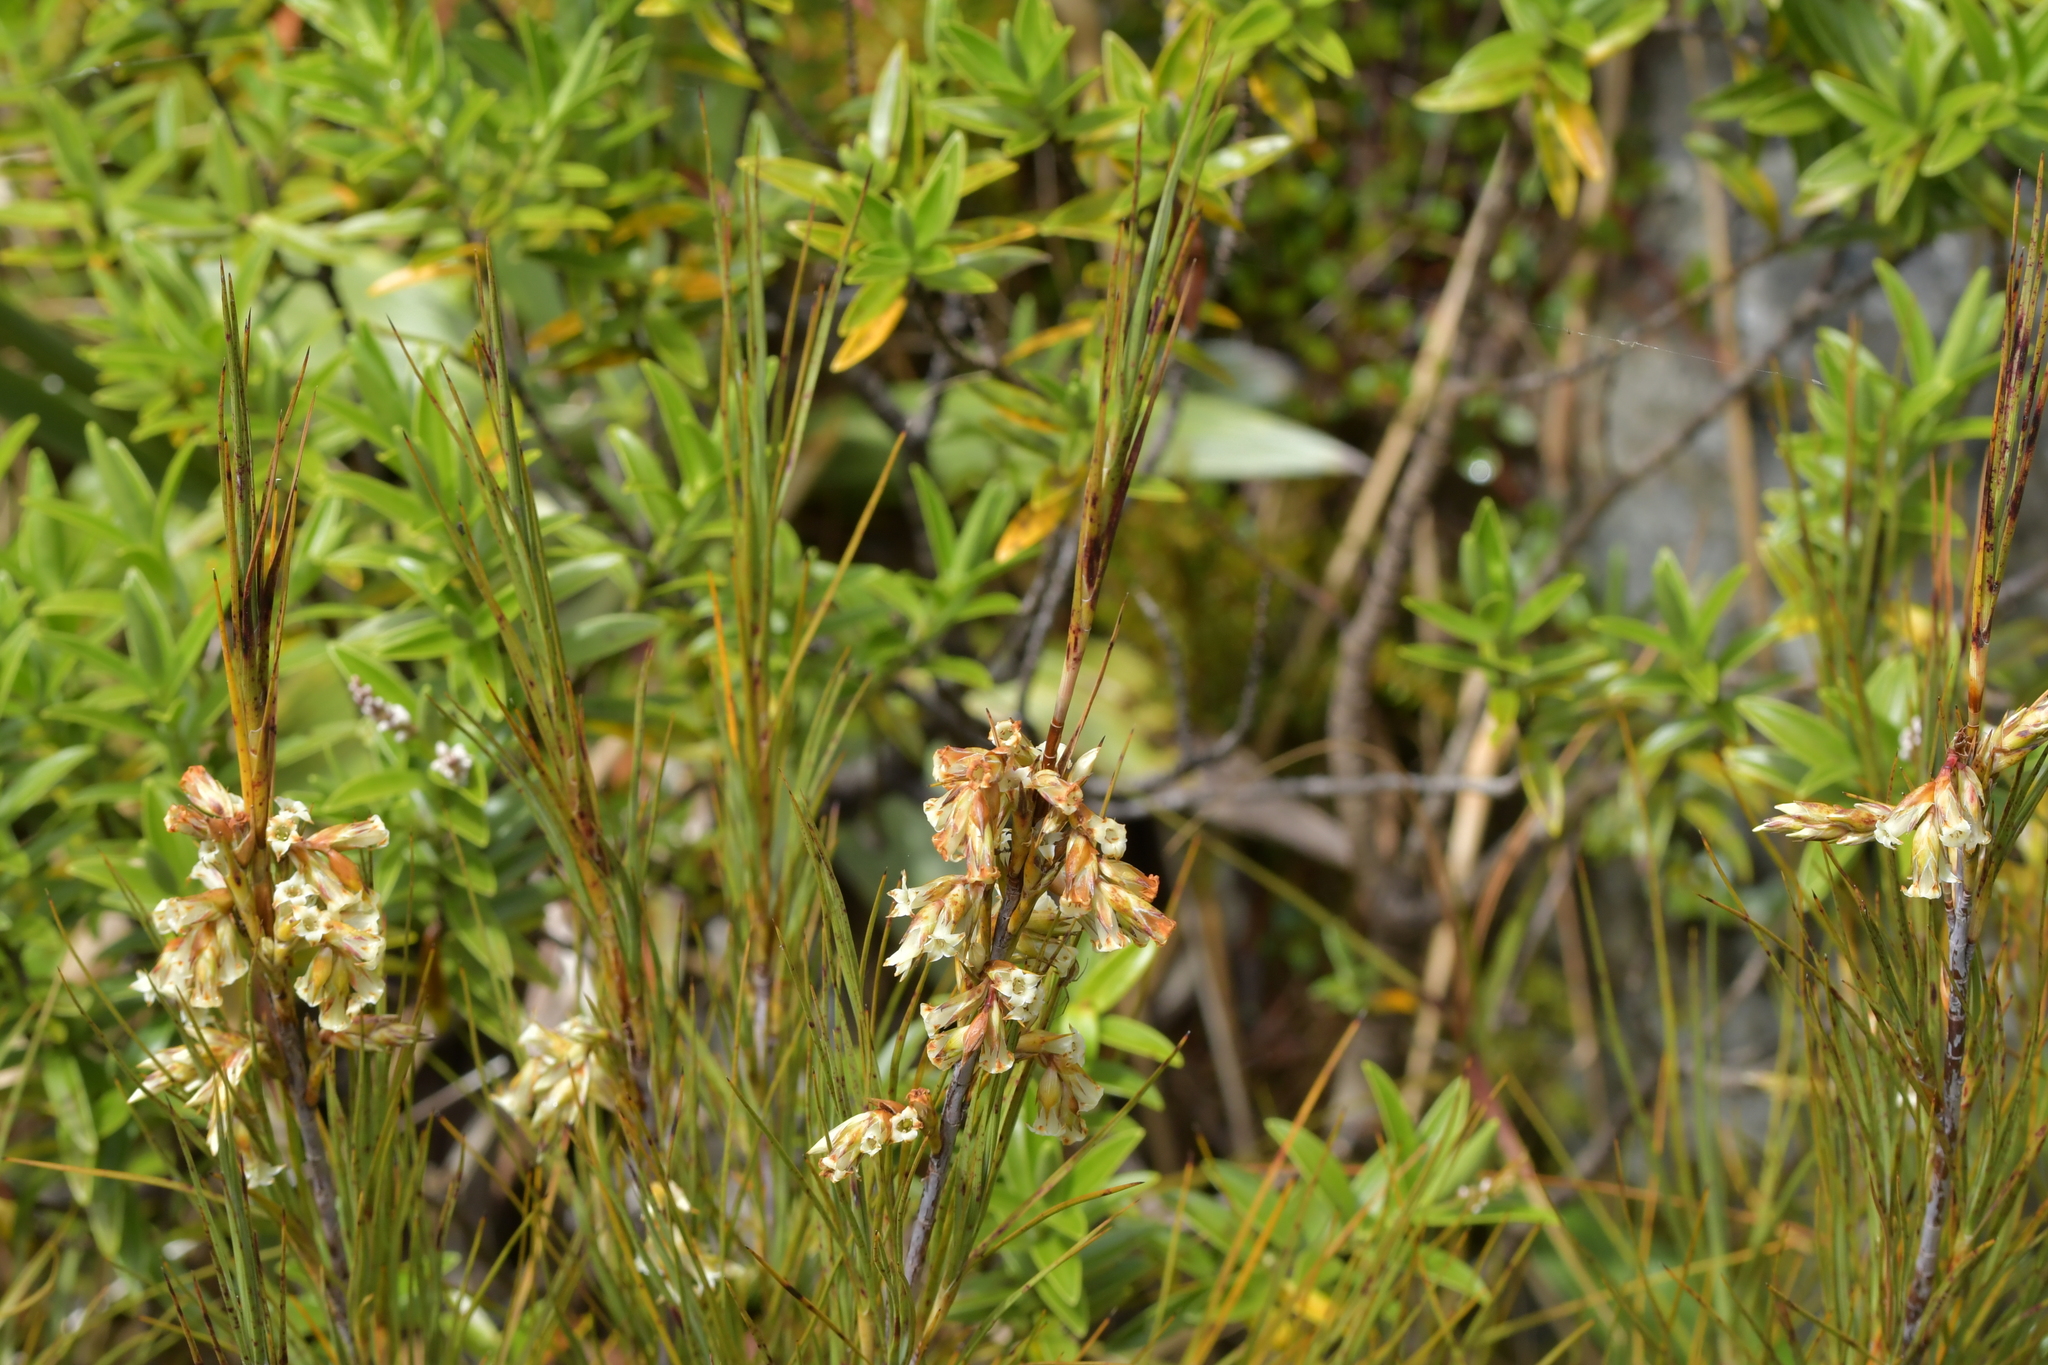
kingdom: Plantae
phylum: Tracheophyta
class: Magnoliopsida
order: Ericales
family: Ericaceae
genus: Dracophyllum
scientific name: Dracophyllum longifolium
